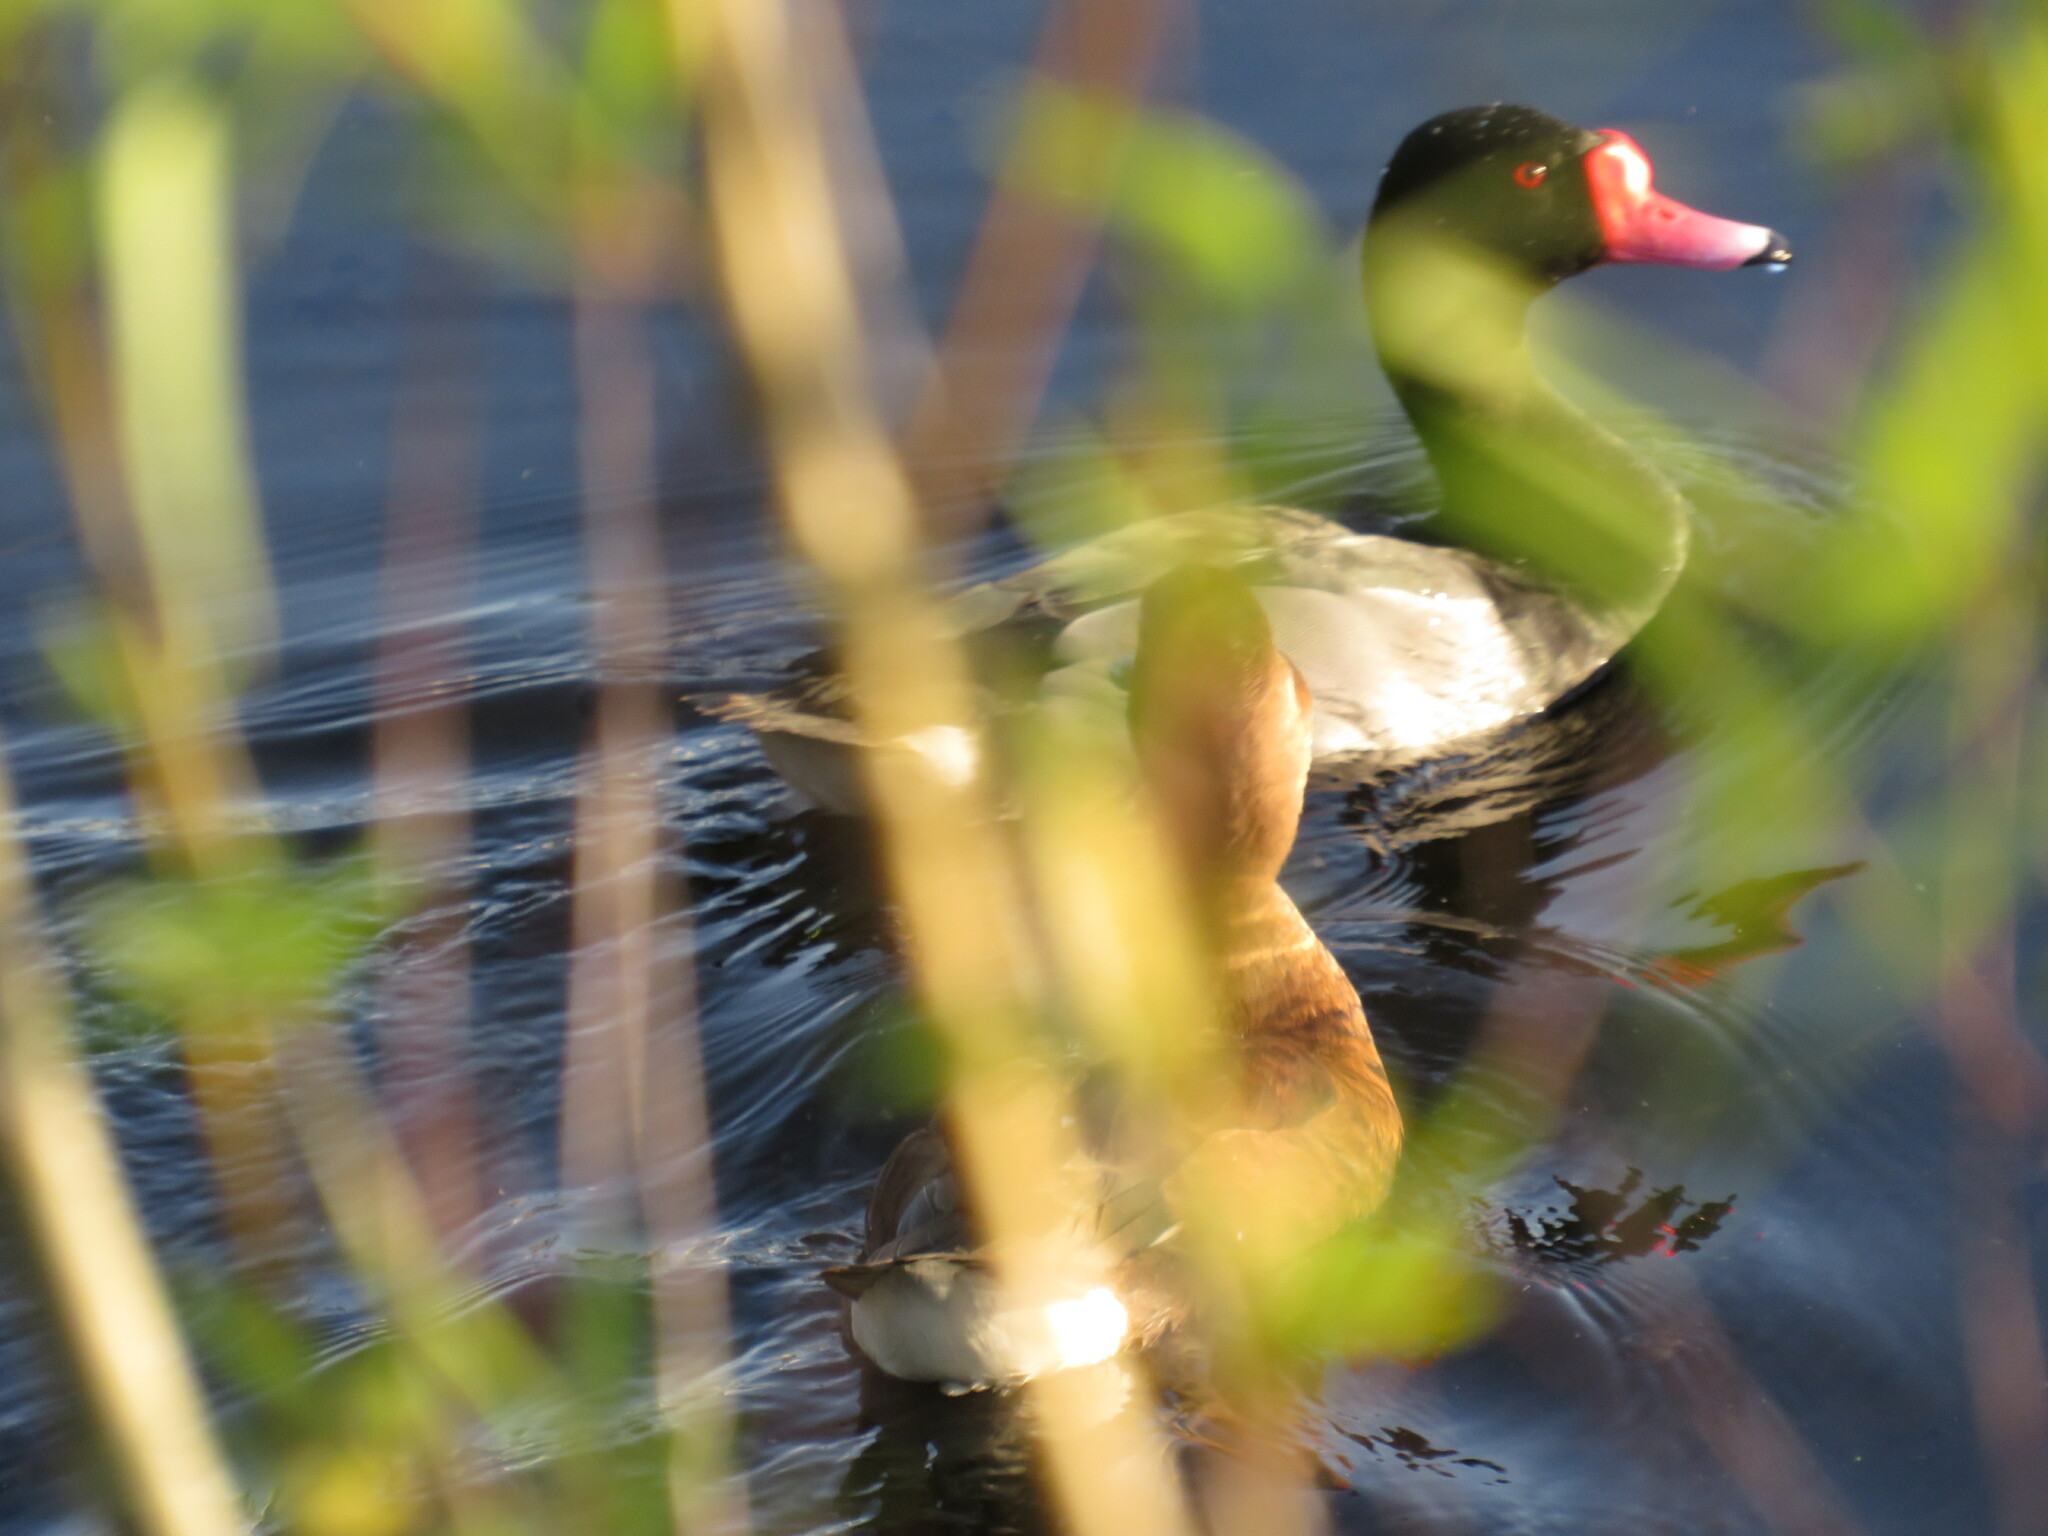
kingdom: Animalia
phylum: Chordata
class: Aves
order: Anseriformes
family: Anatidae
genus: Netta
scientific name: Netta peposaca
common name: Rosy-billed pochard
